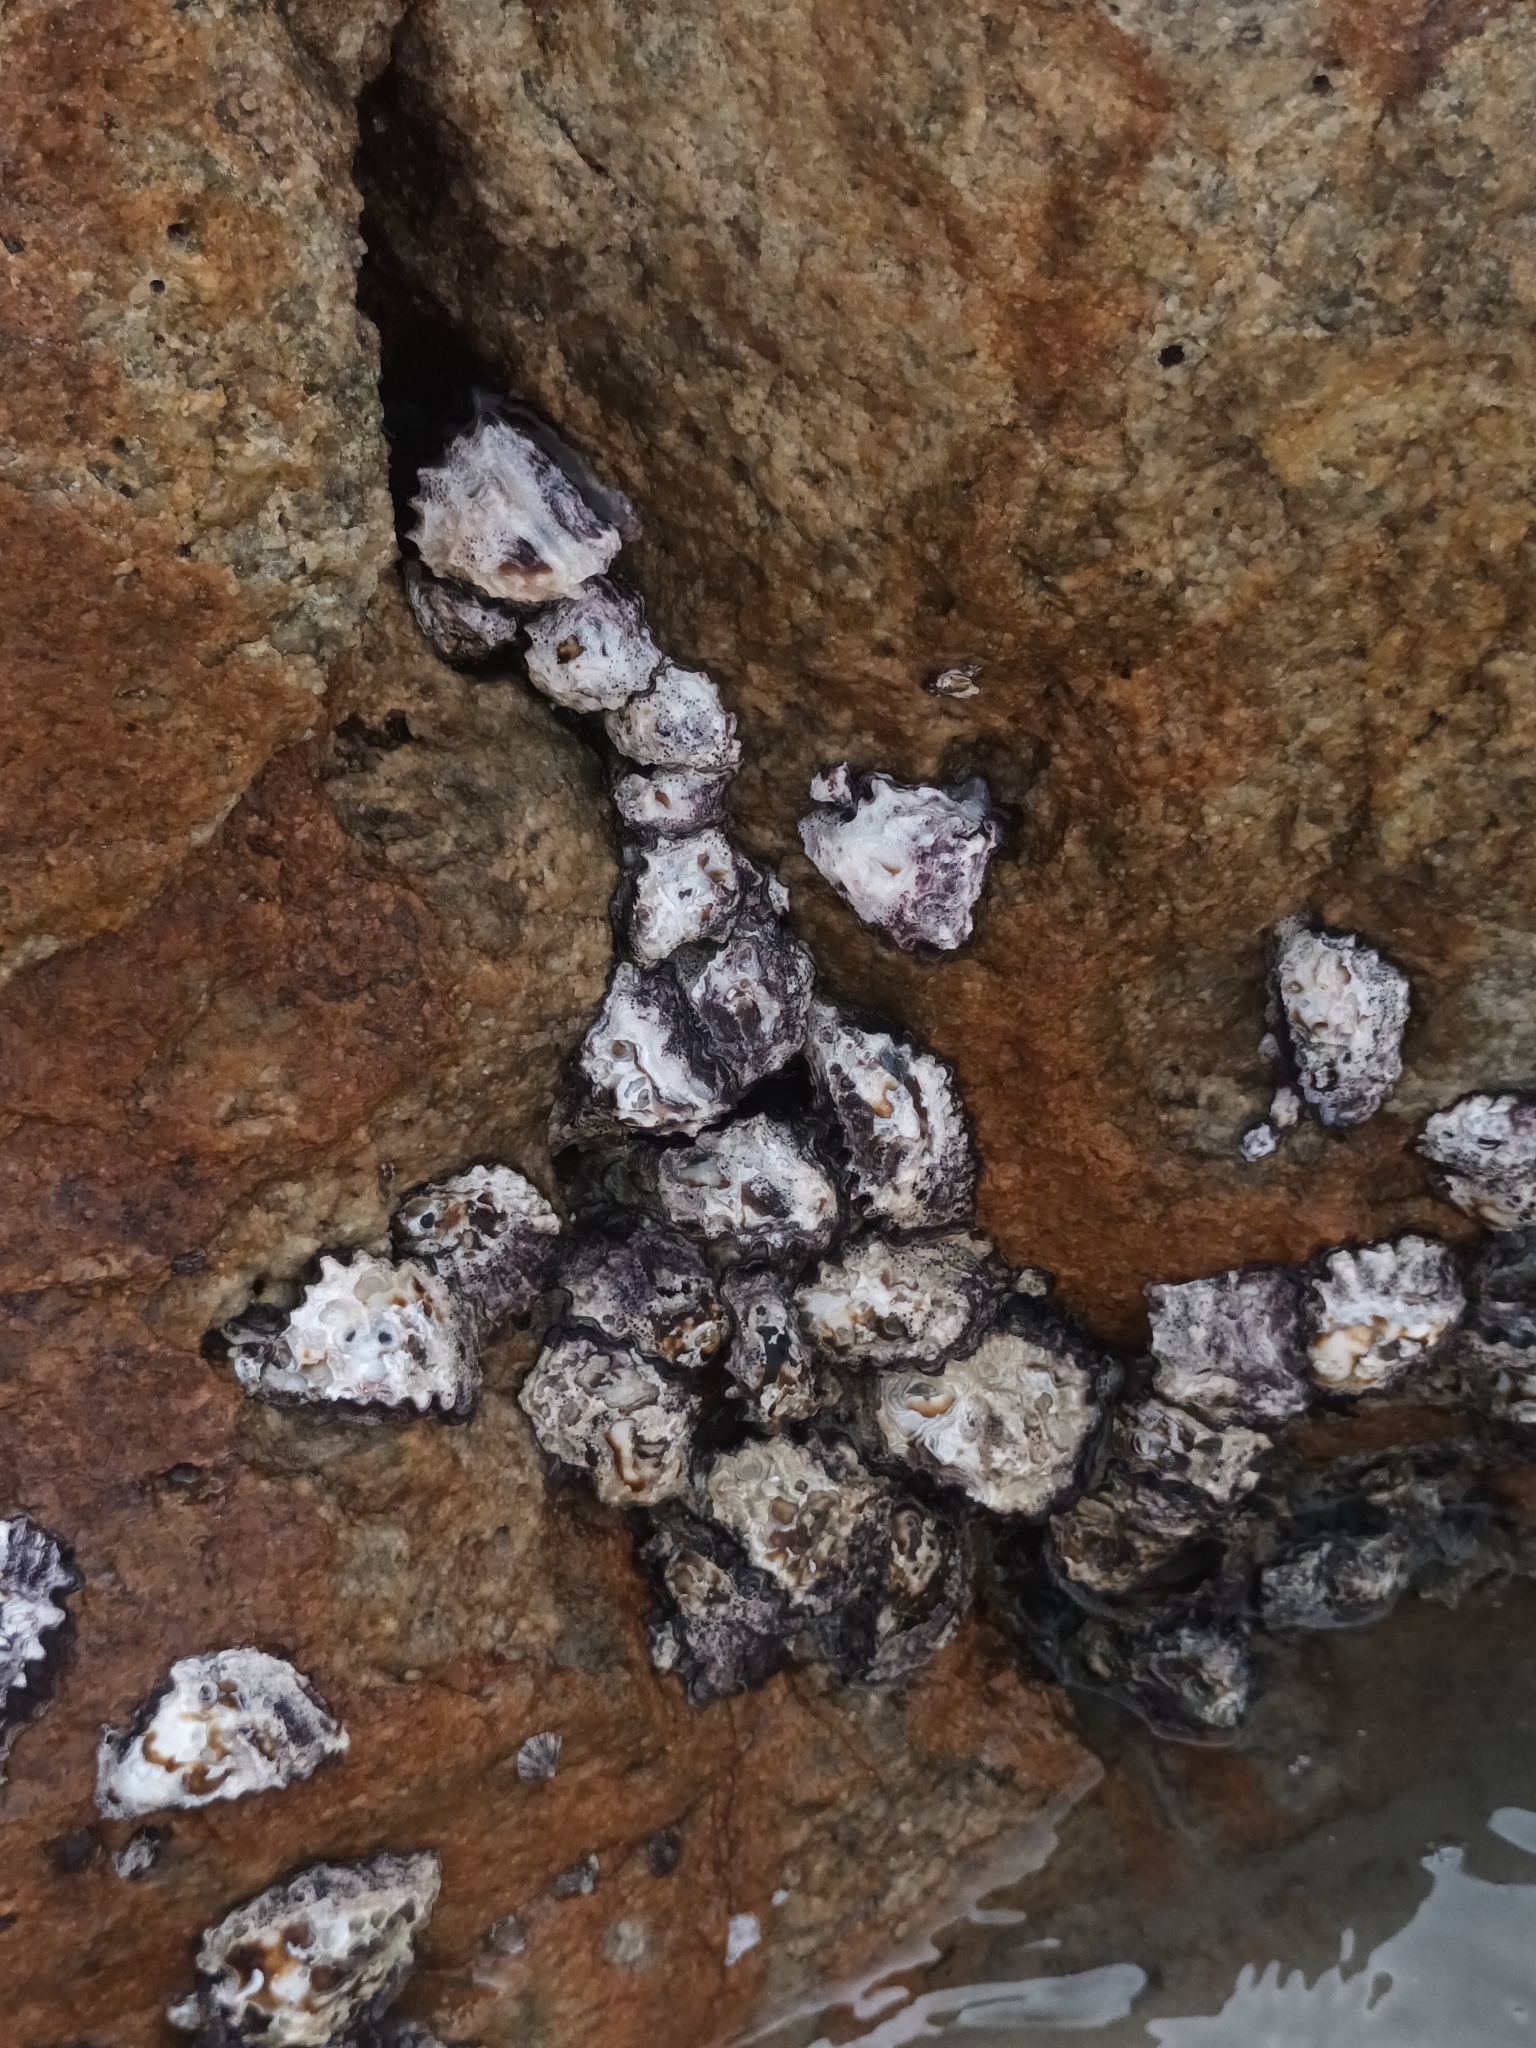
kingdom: Animalia
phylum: Mollusca
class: Bivalvia
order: Ostreida
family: Ostreidae
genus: Saccostrea
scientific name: Saccostrea cuccullata
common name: Natal rock oyster
